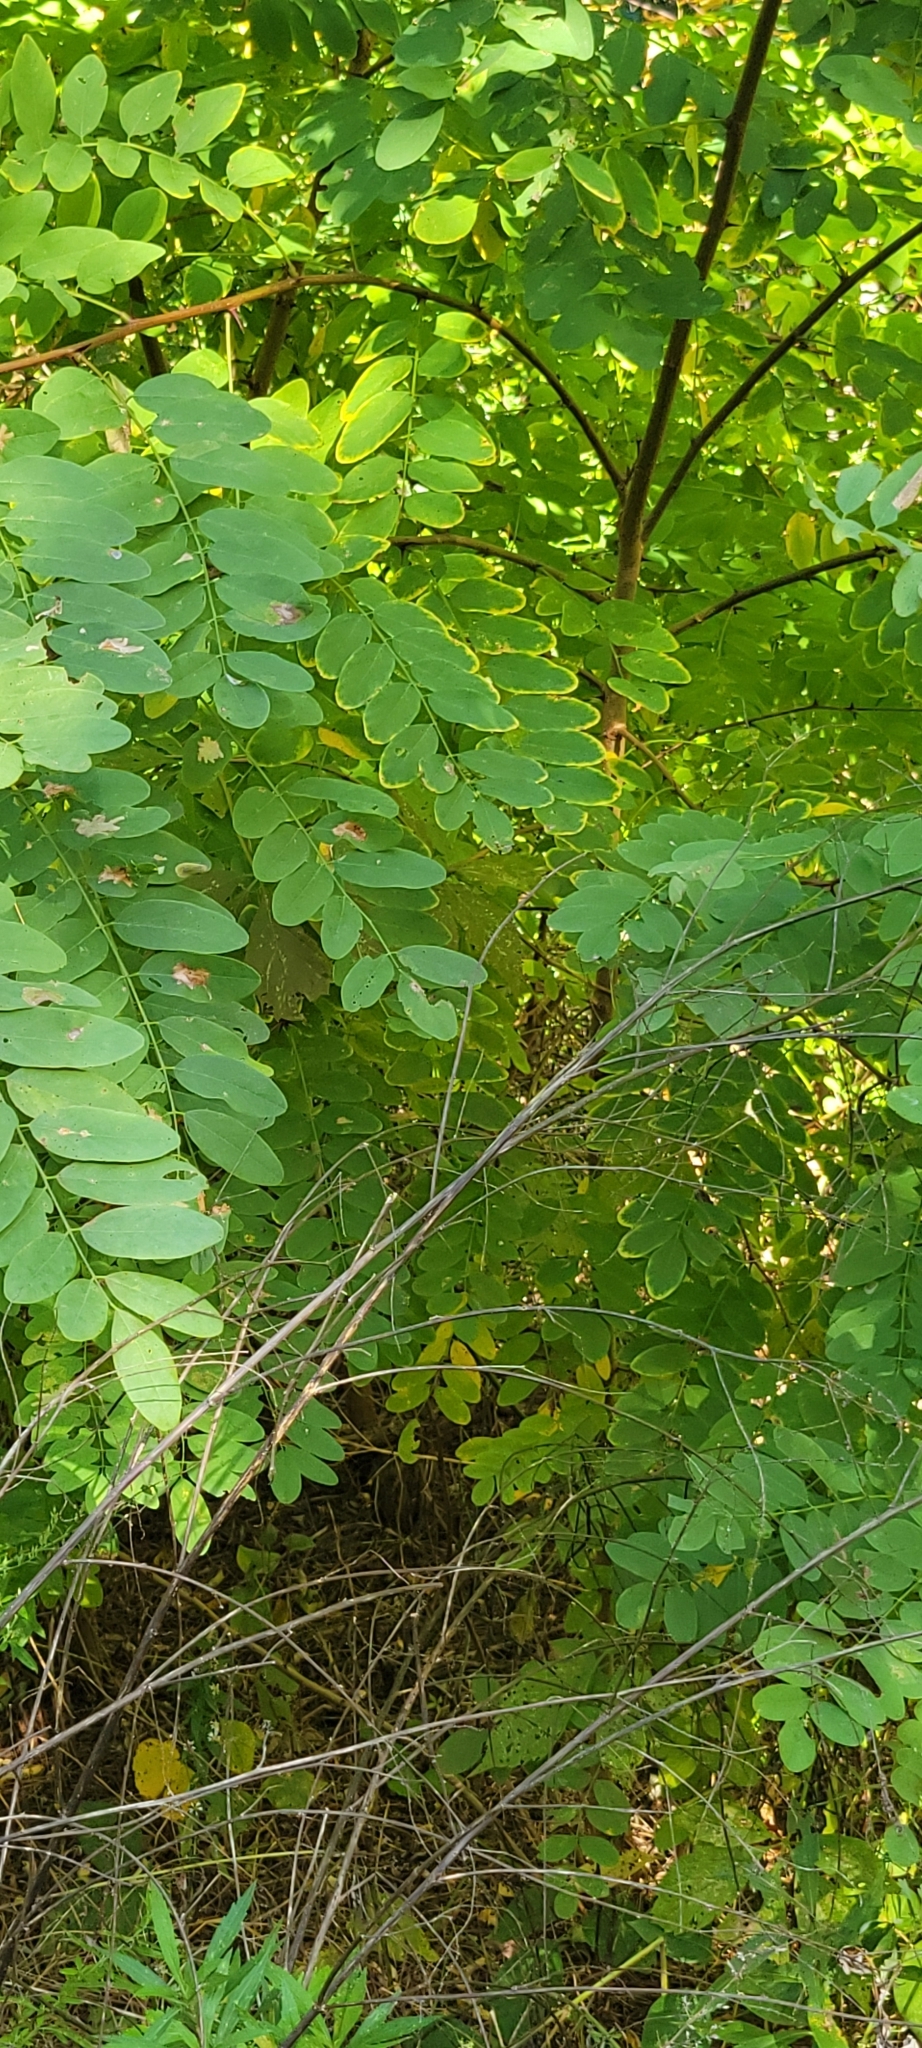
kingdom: Plantae
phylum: Tracheophyta
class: Magnoliopsida
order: Fabales
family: Fabaceae
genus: Robinia
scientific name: Robinia pseudoacacia
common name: Black locust
